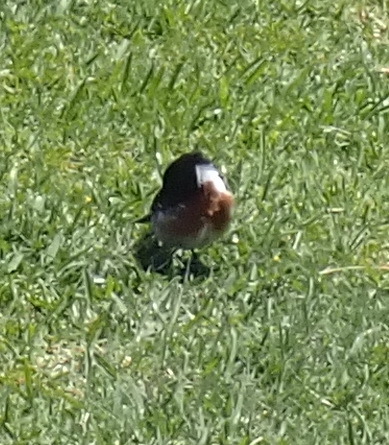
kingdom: Animalia
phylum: Chordata
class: Aves
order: Passeriformes
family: Muscicapidae
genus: Saxicola
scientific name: Saxicola torquatus
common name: African stonechat
